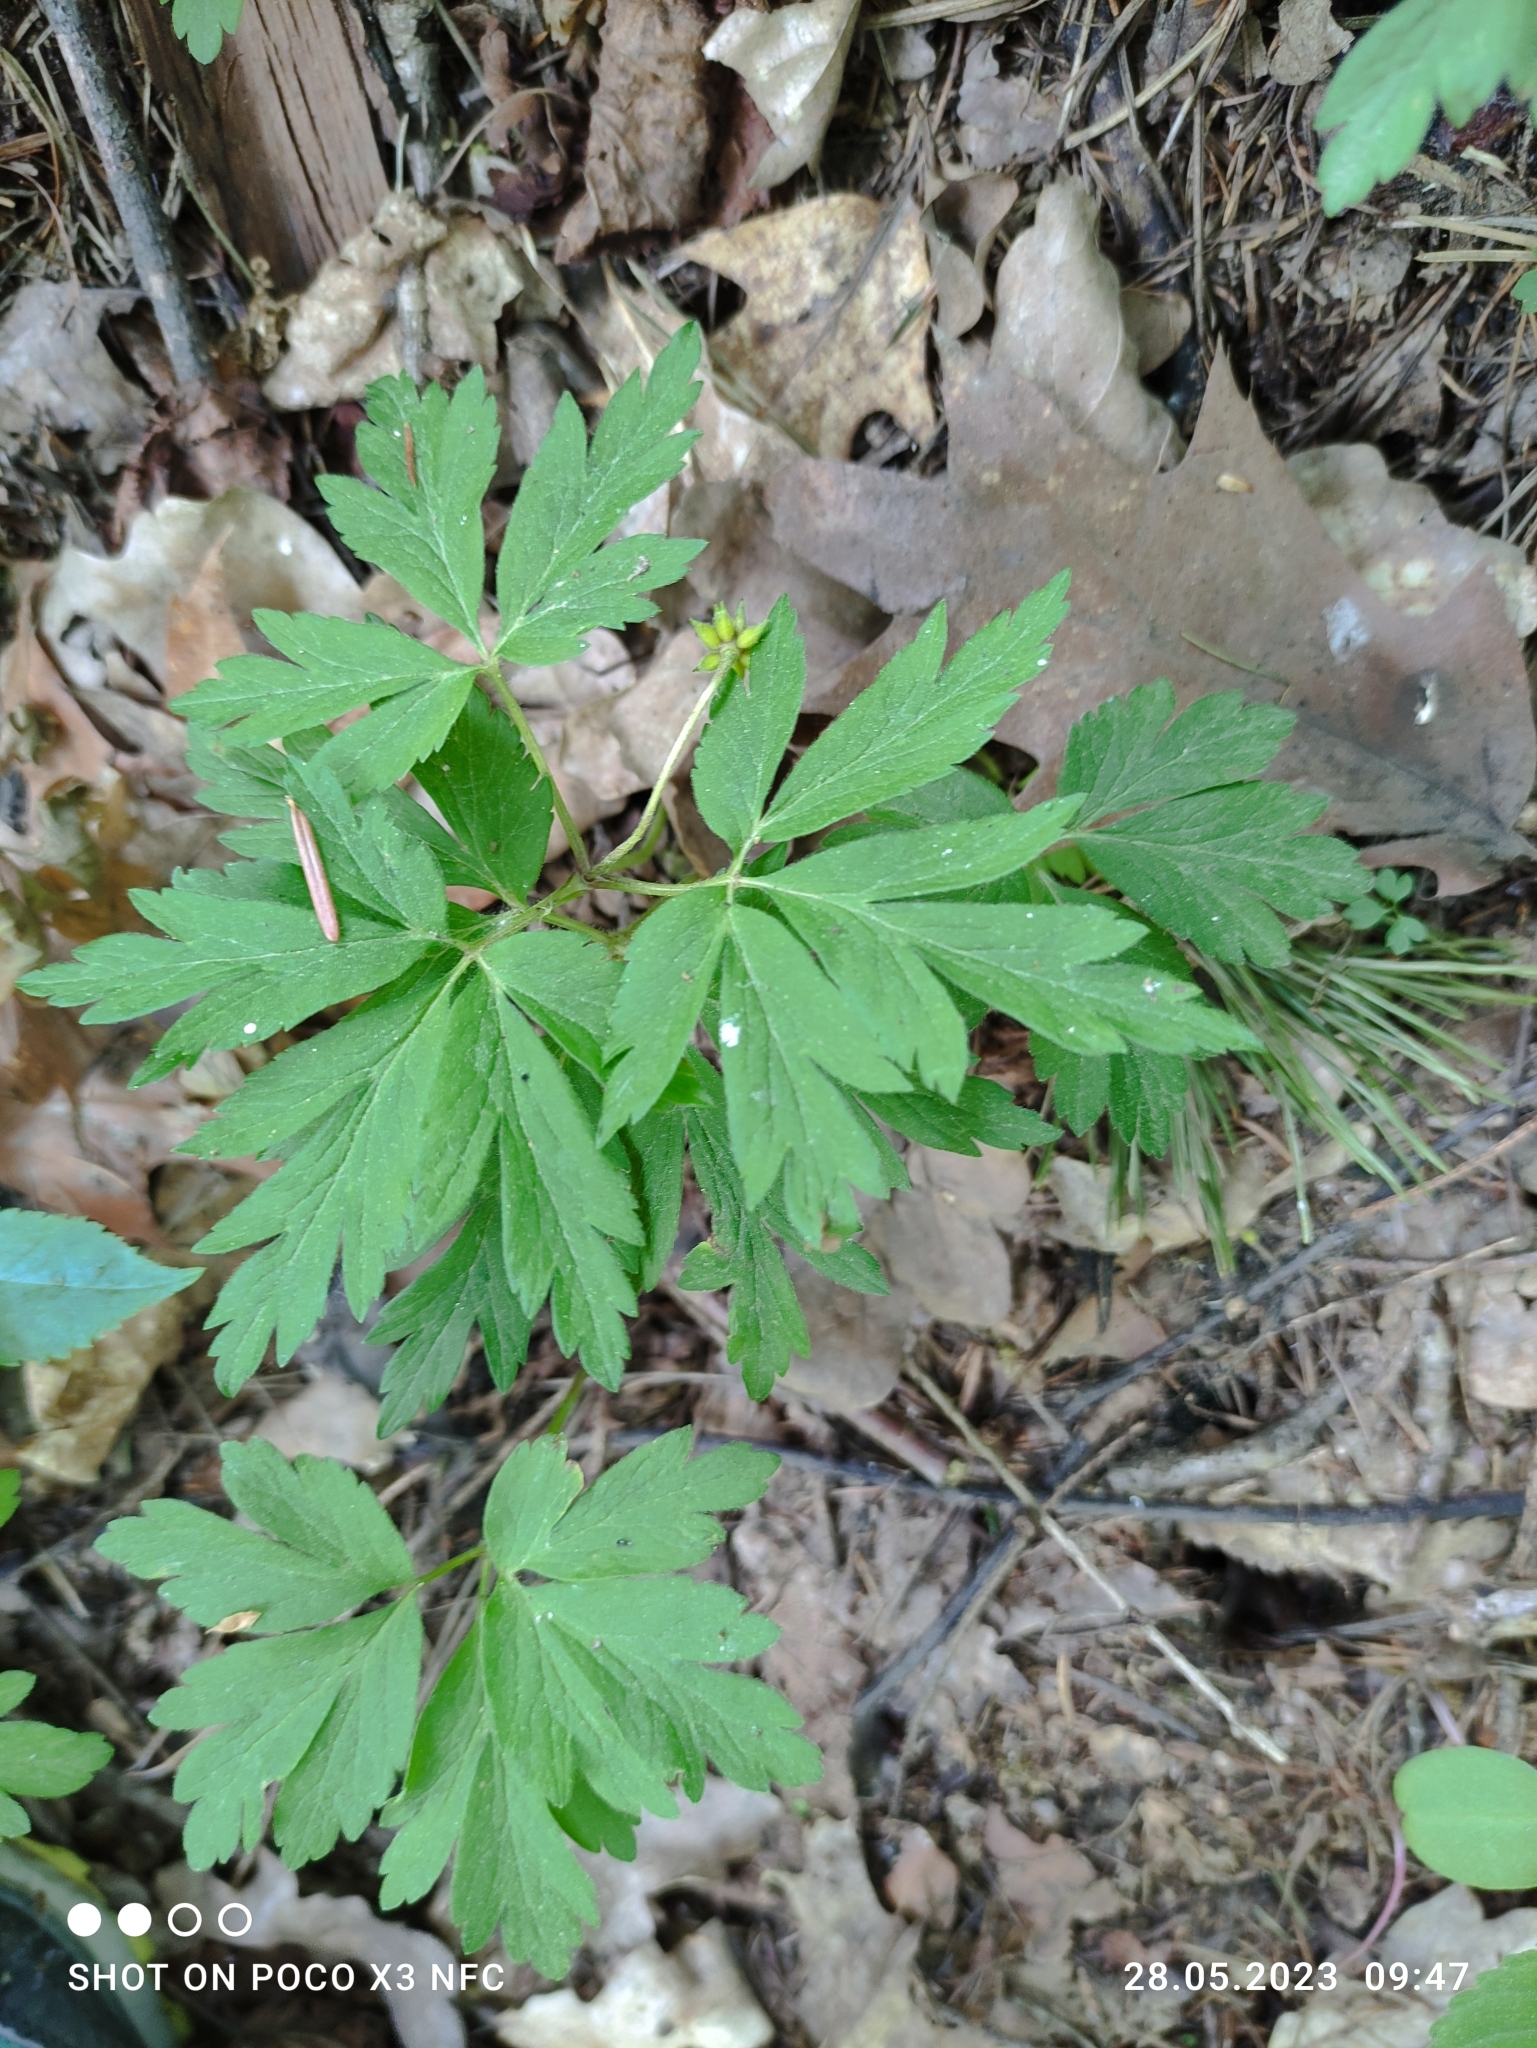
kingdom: Plantae
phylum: Tracheophyta
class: Magnoliopsida
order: Ranunculales
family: Ranunculaceae
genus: Anemone
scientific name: Anemone nemorosa
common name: Wood anemone
